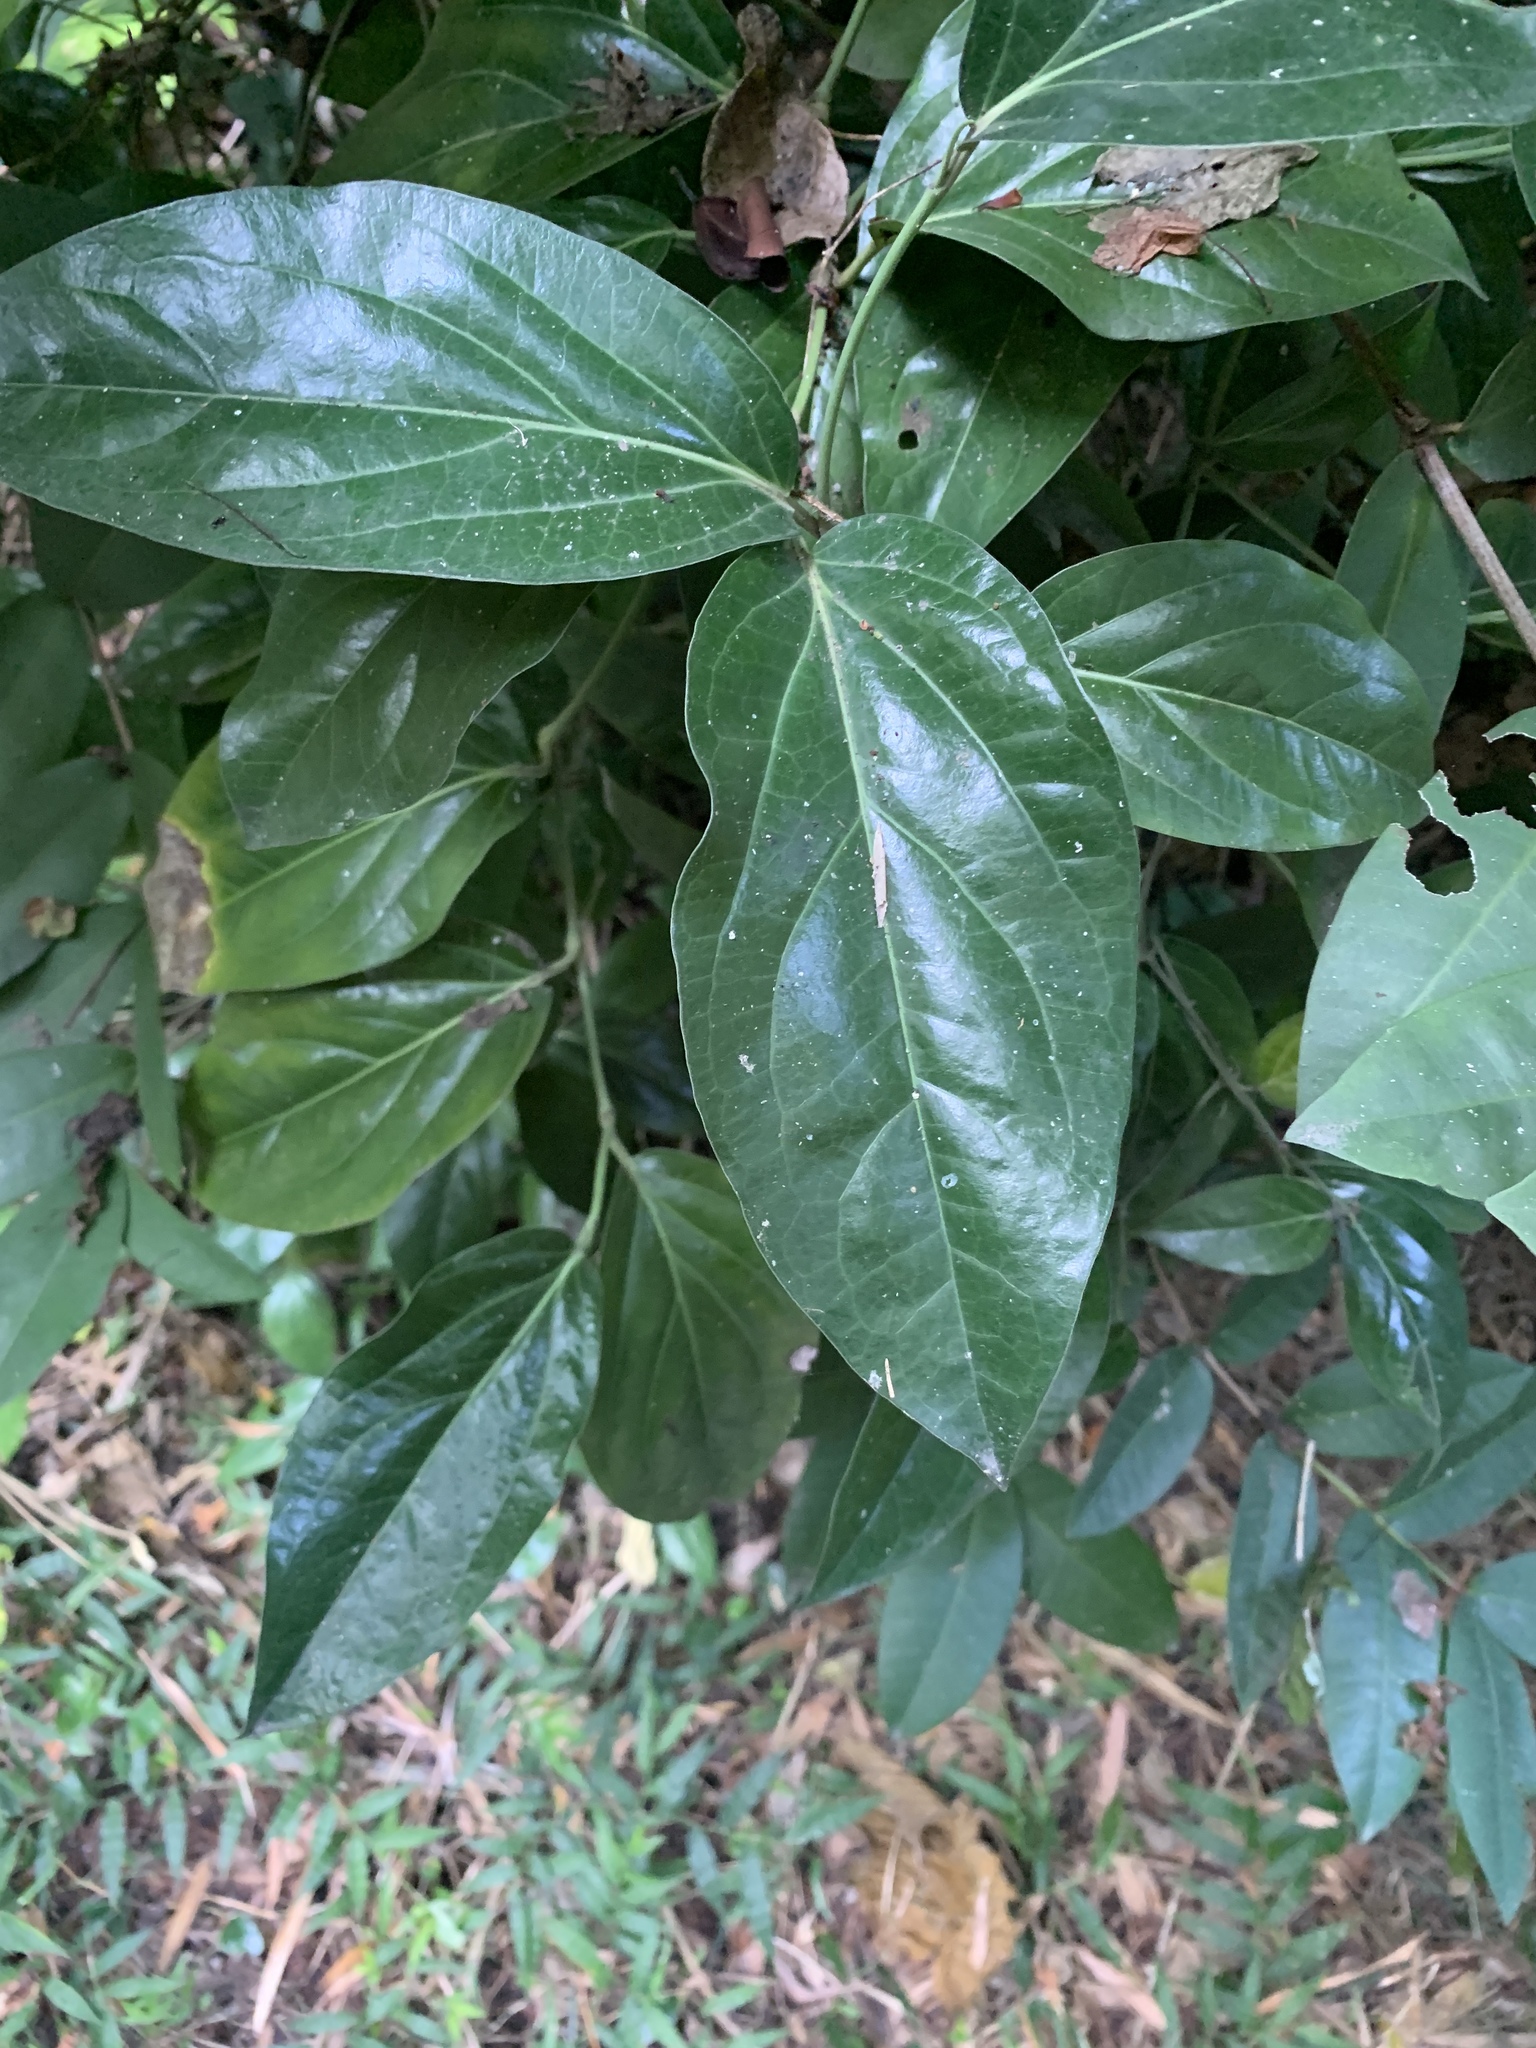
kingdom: Plantae
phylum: Tracheophyta
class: Magnoliopsida
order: Piperales
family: Piperaceae
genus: Piper
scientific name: Piper kawakamii
